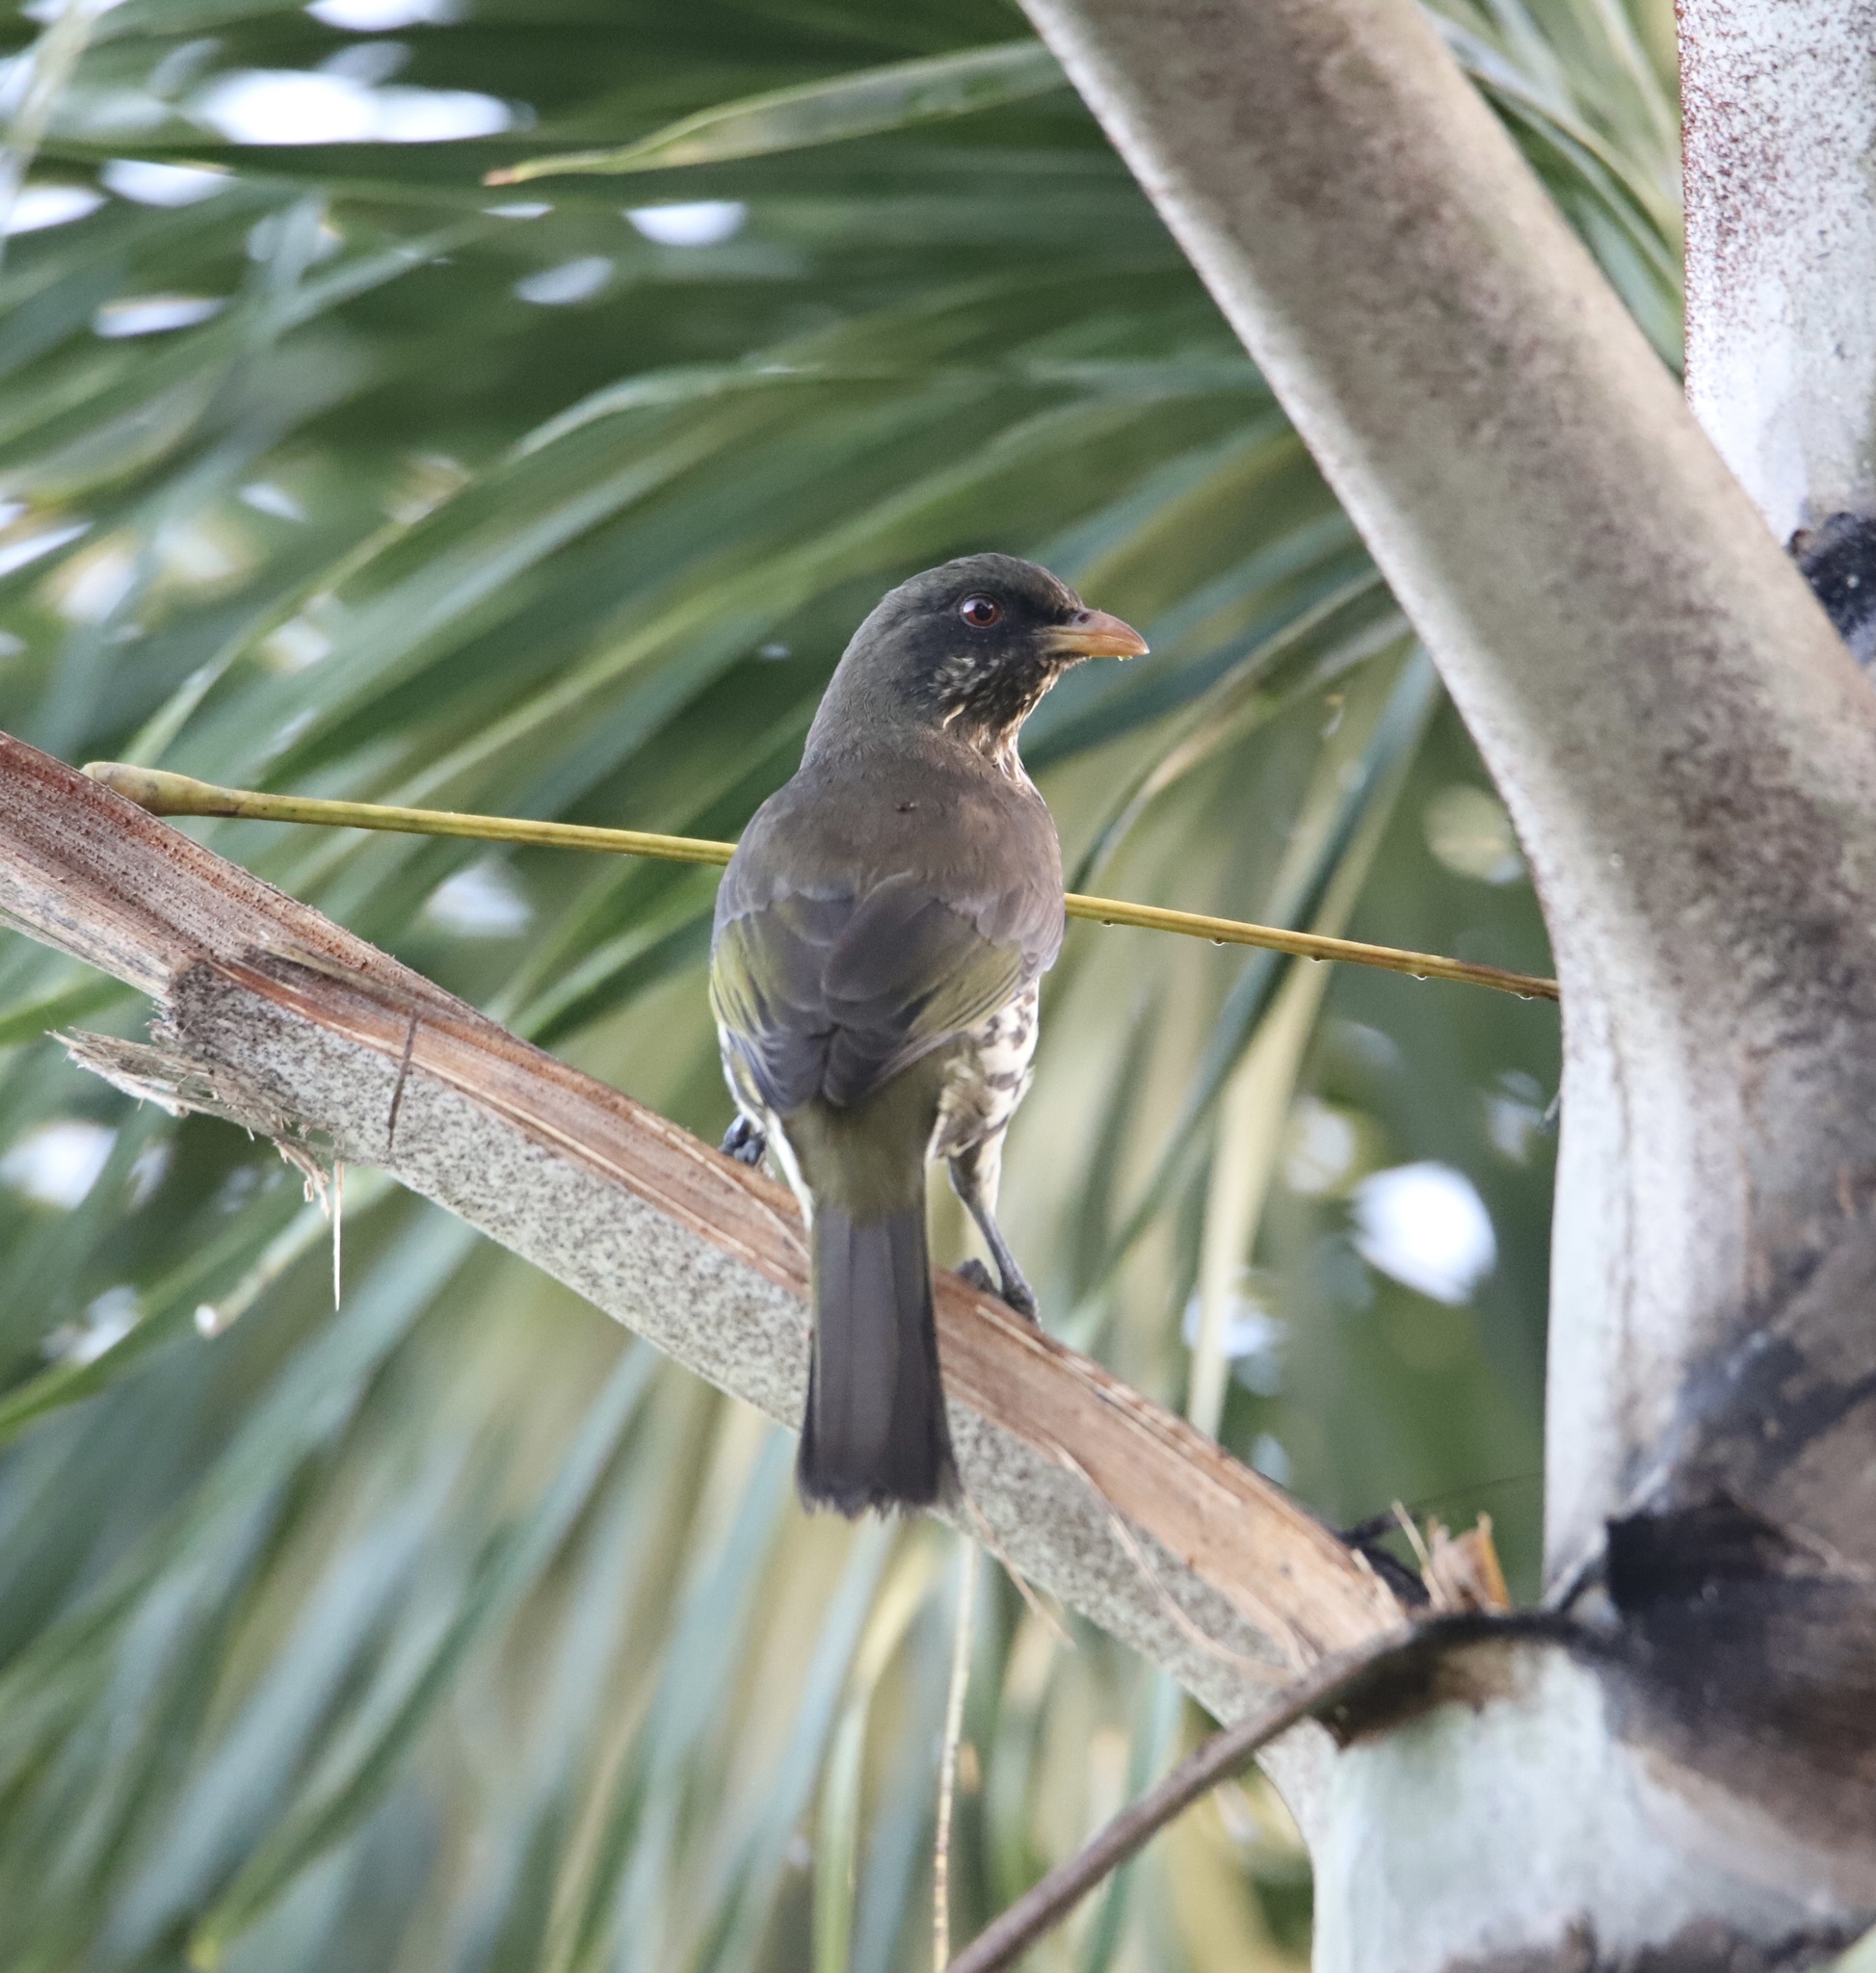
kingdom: Animalia
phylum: Chordata
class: Aves
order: Passeriformes
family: Dulidae
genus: Dulus
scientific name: Dulus dominicus
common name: Palmchat
